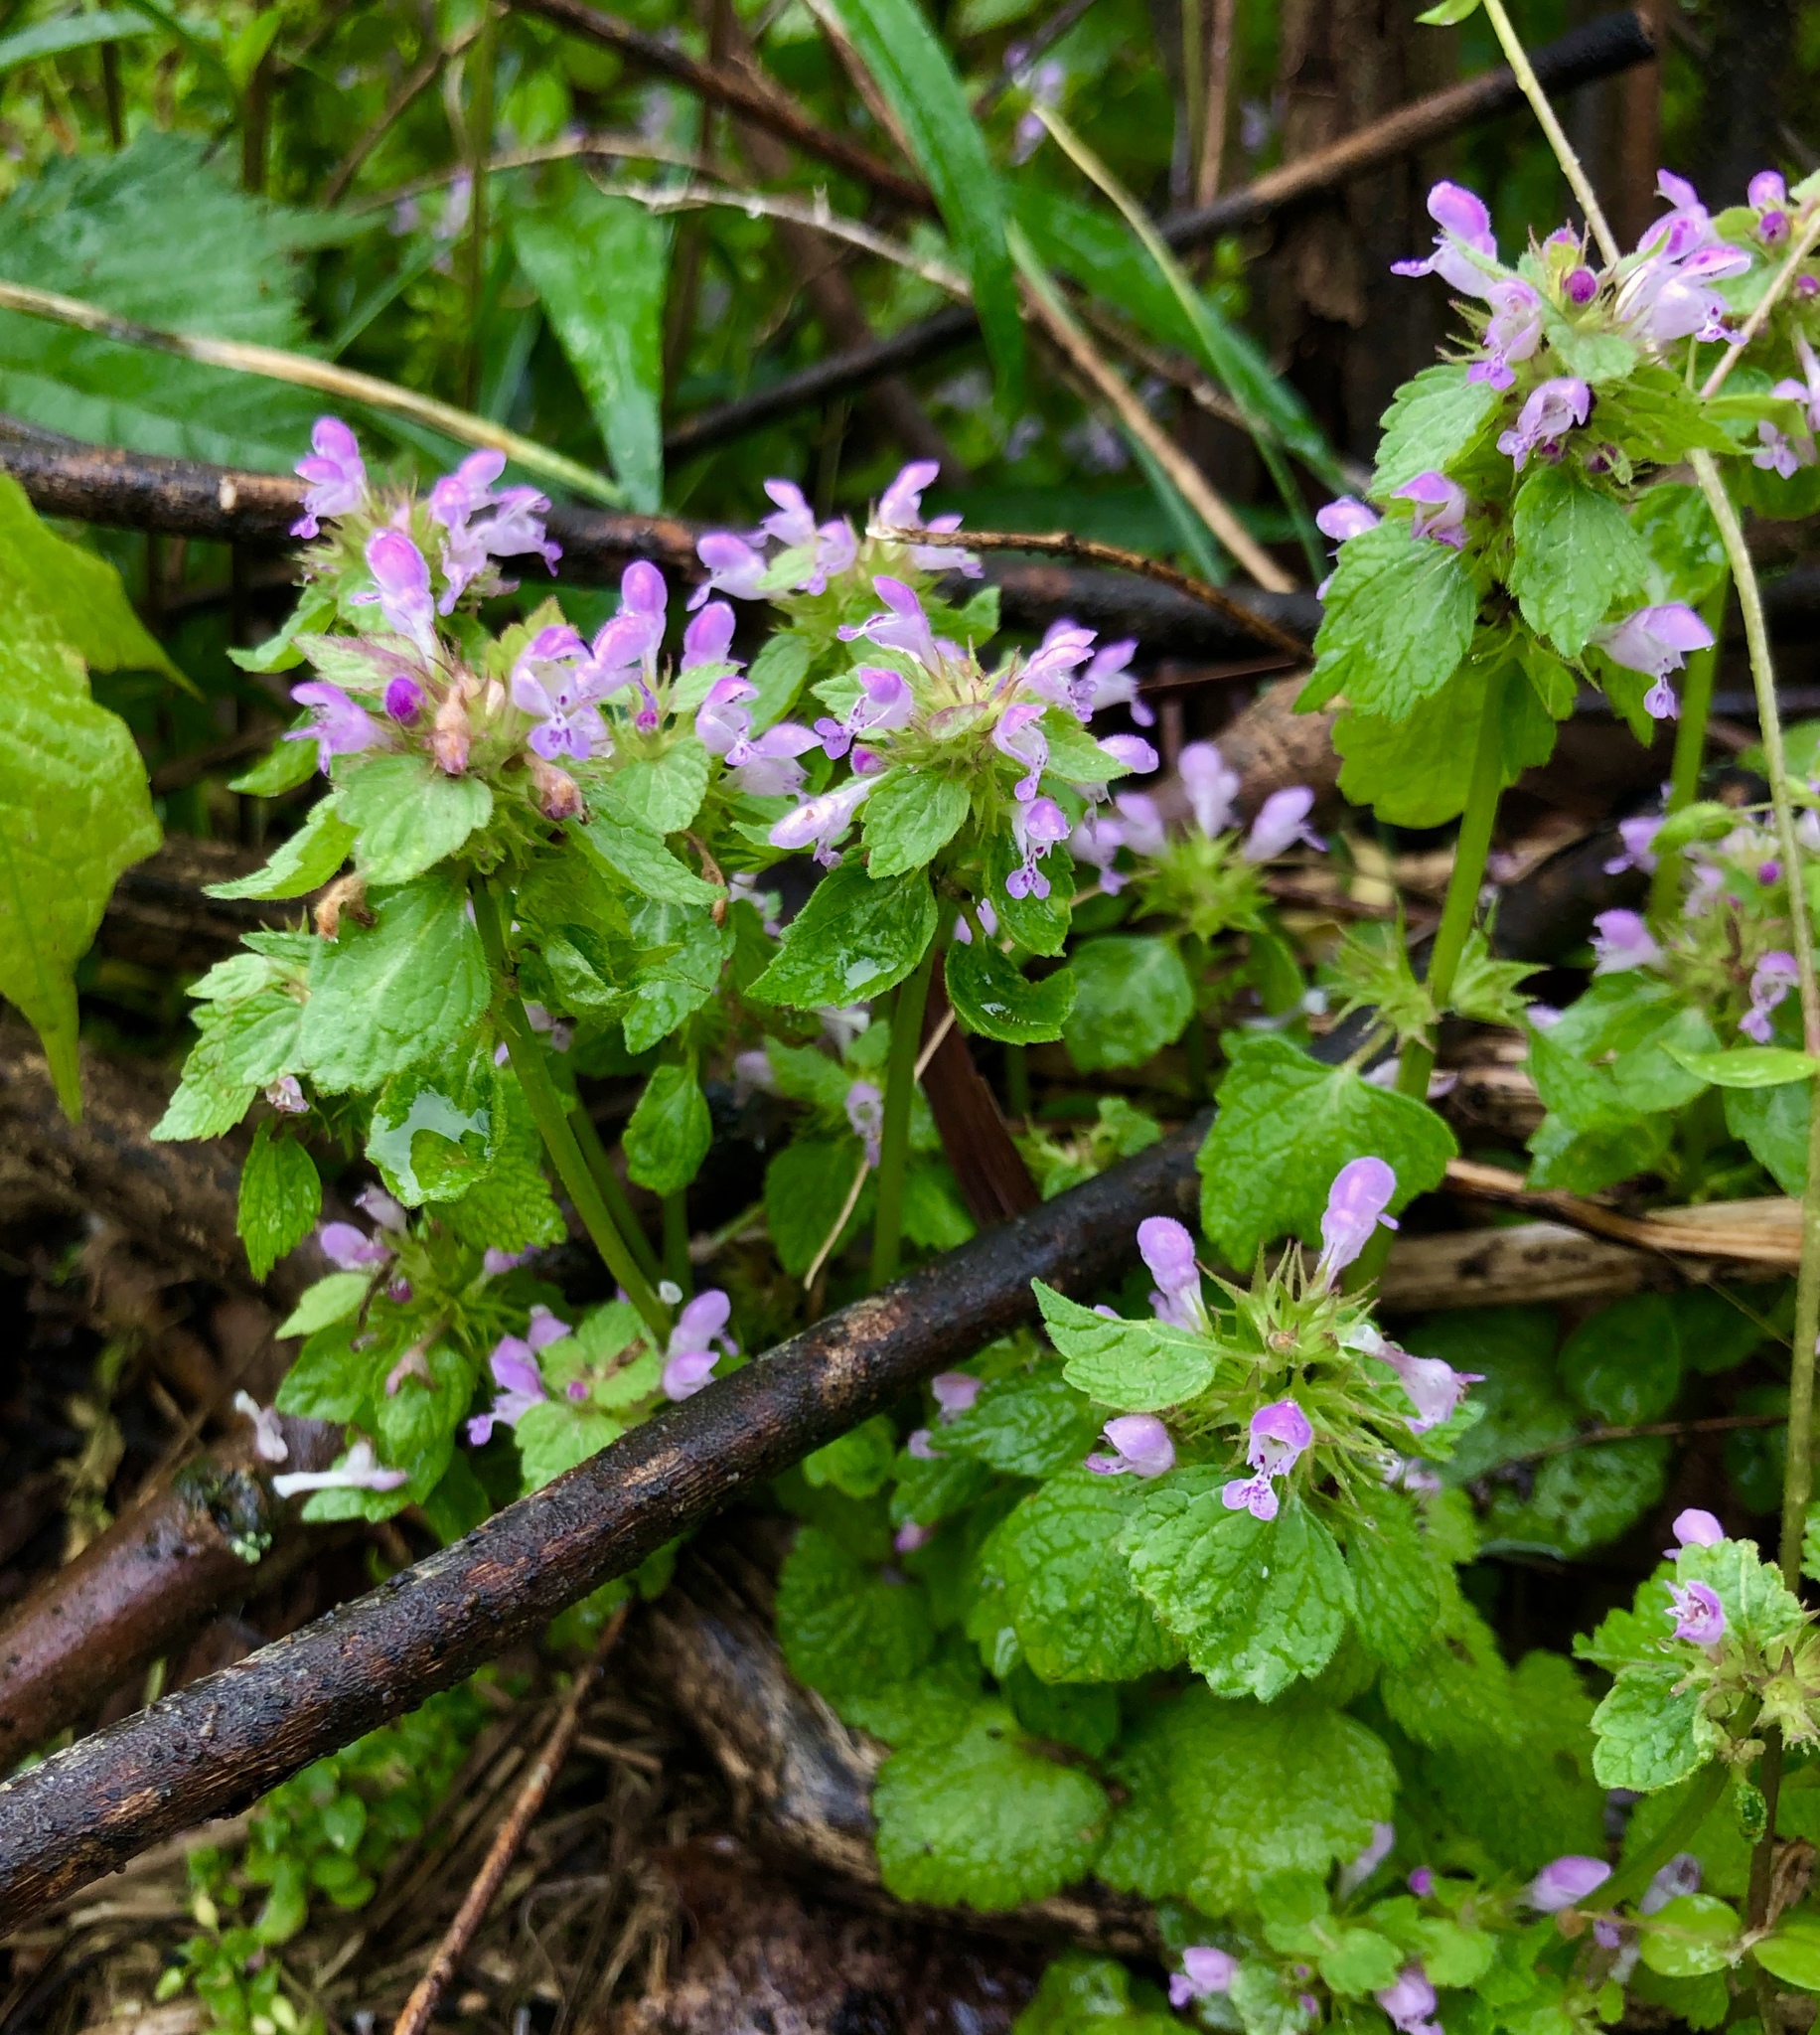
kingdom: Plantae
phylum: Tracheophyta
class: Magnoliopsida
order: Lamiales
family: Lamiaceae
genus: Lamium
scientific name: Lamium purpureum
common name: Red dead-nettle
